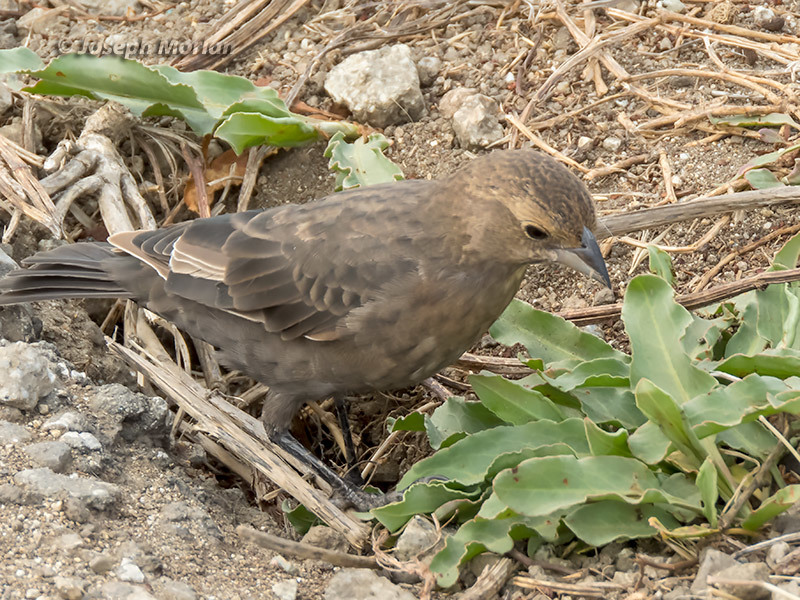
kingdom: Animalia
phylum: Chordata
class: Aves
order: Passeriformes
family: Icteridae
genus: Molothrus
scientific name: Molothrus ater
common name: Brown-headed cowbird
